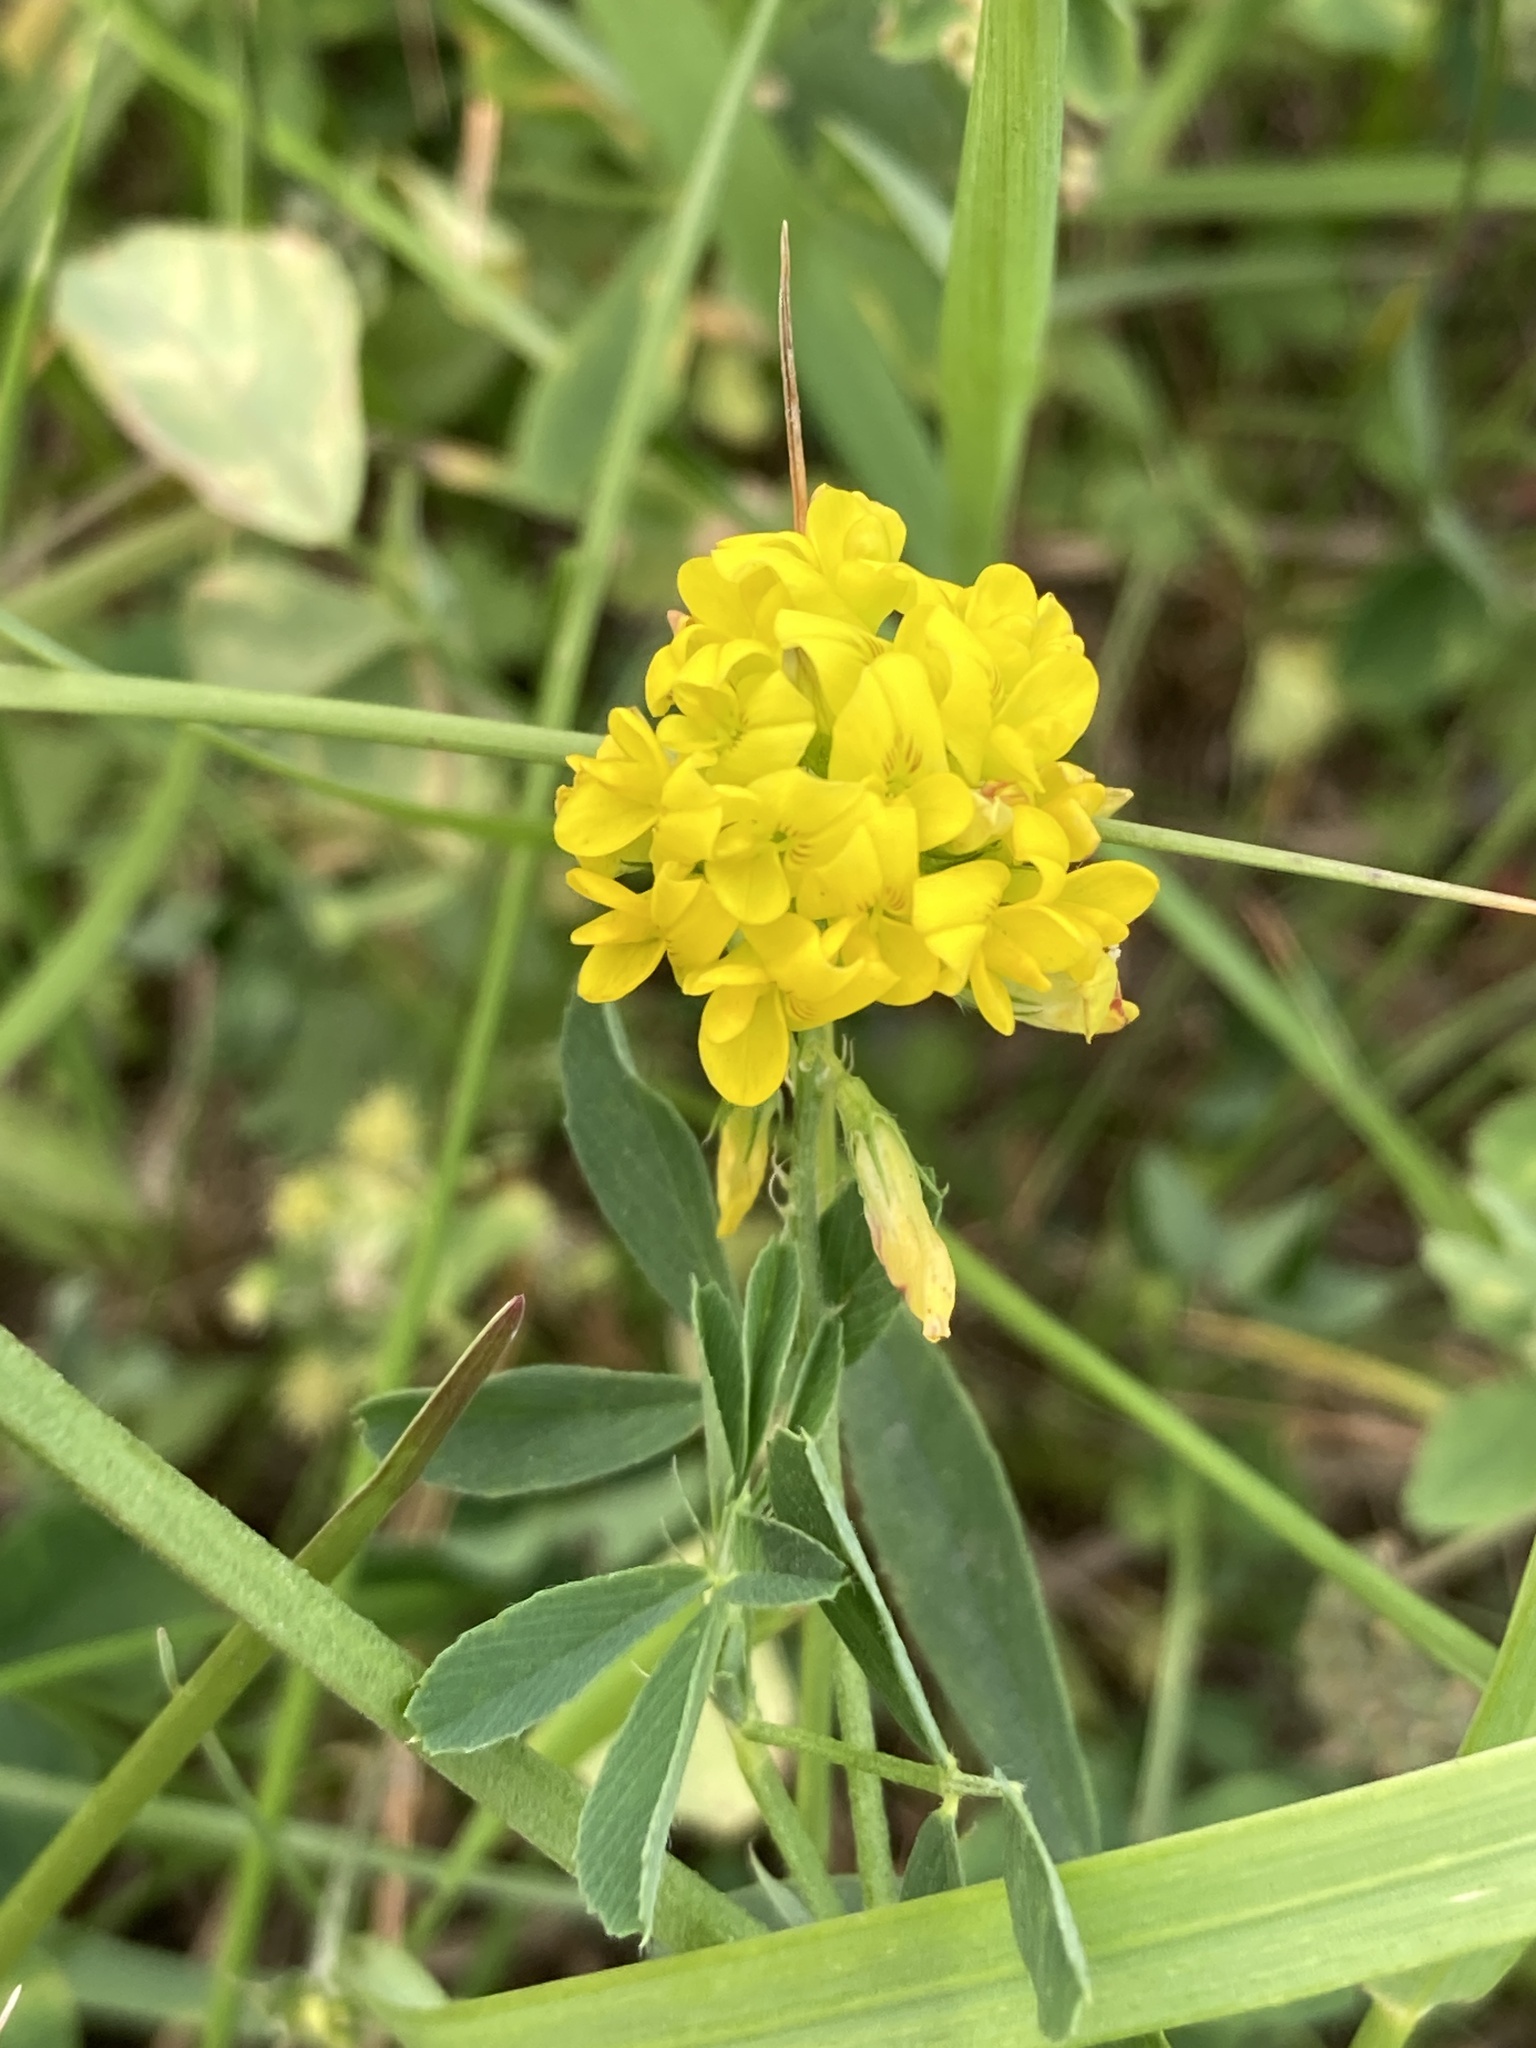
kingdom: Plantae
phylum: Tracheophyta
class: Magnoliopsida
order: Fabales
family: Fabaceae
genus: Medicago
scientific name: Medicago falcata
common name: Sickle medick
